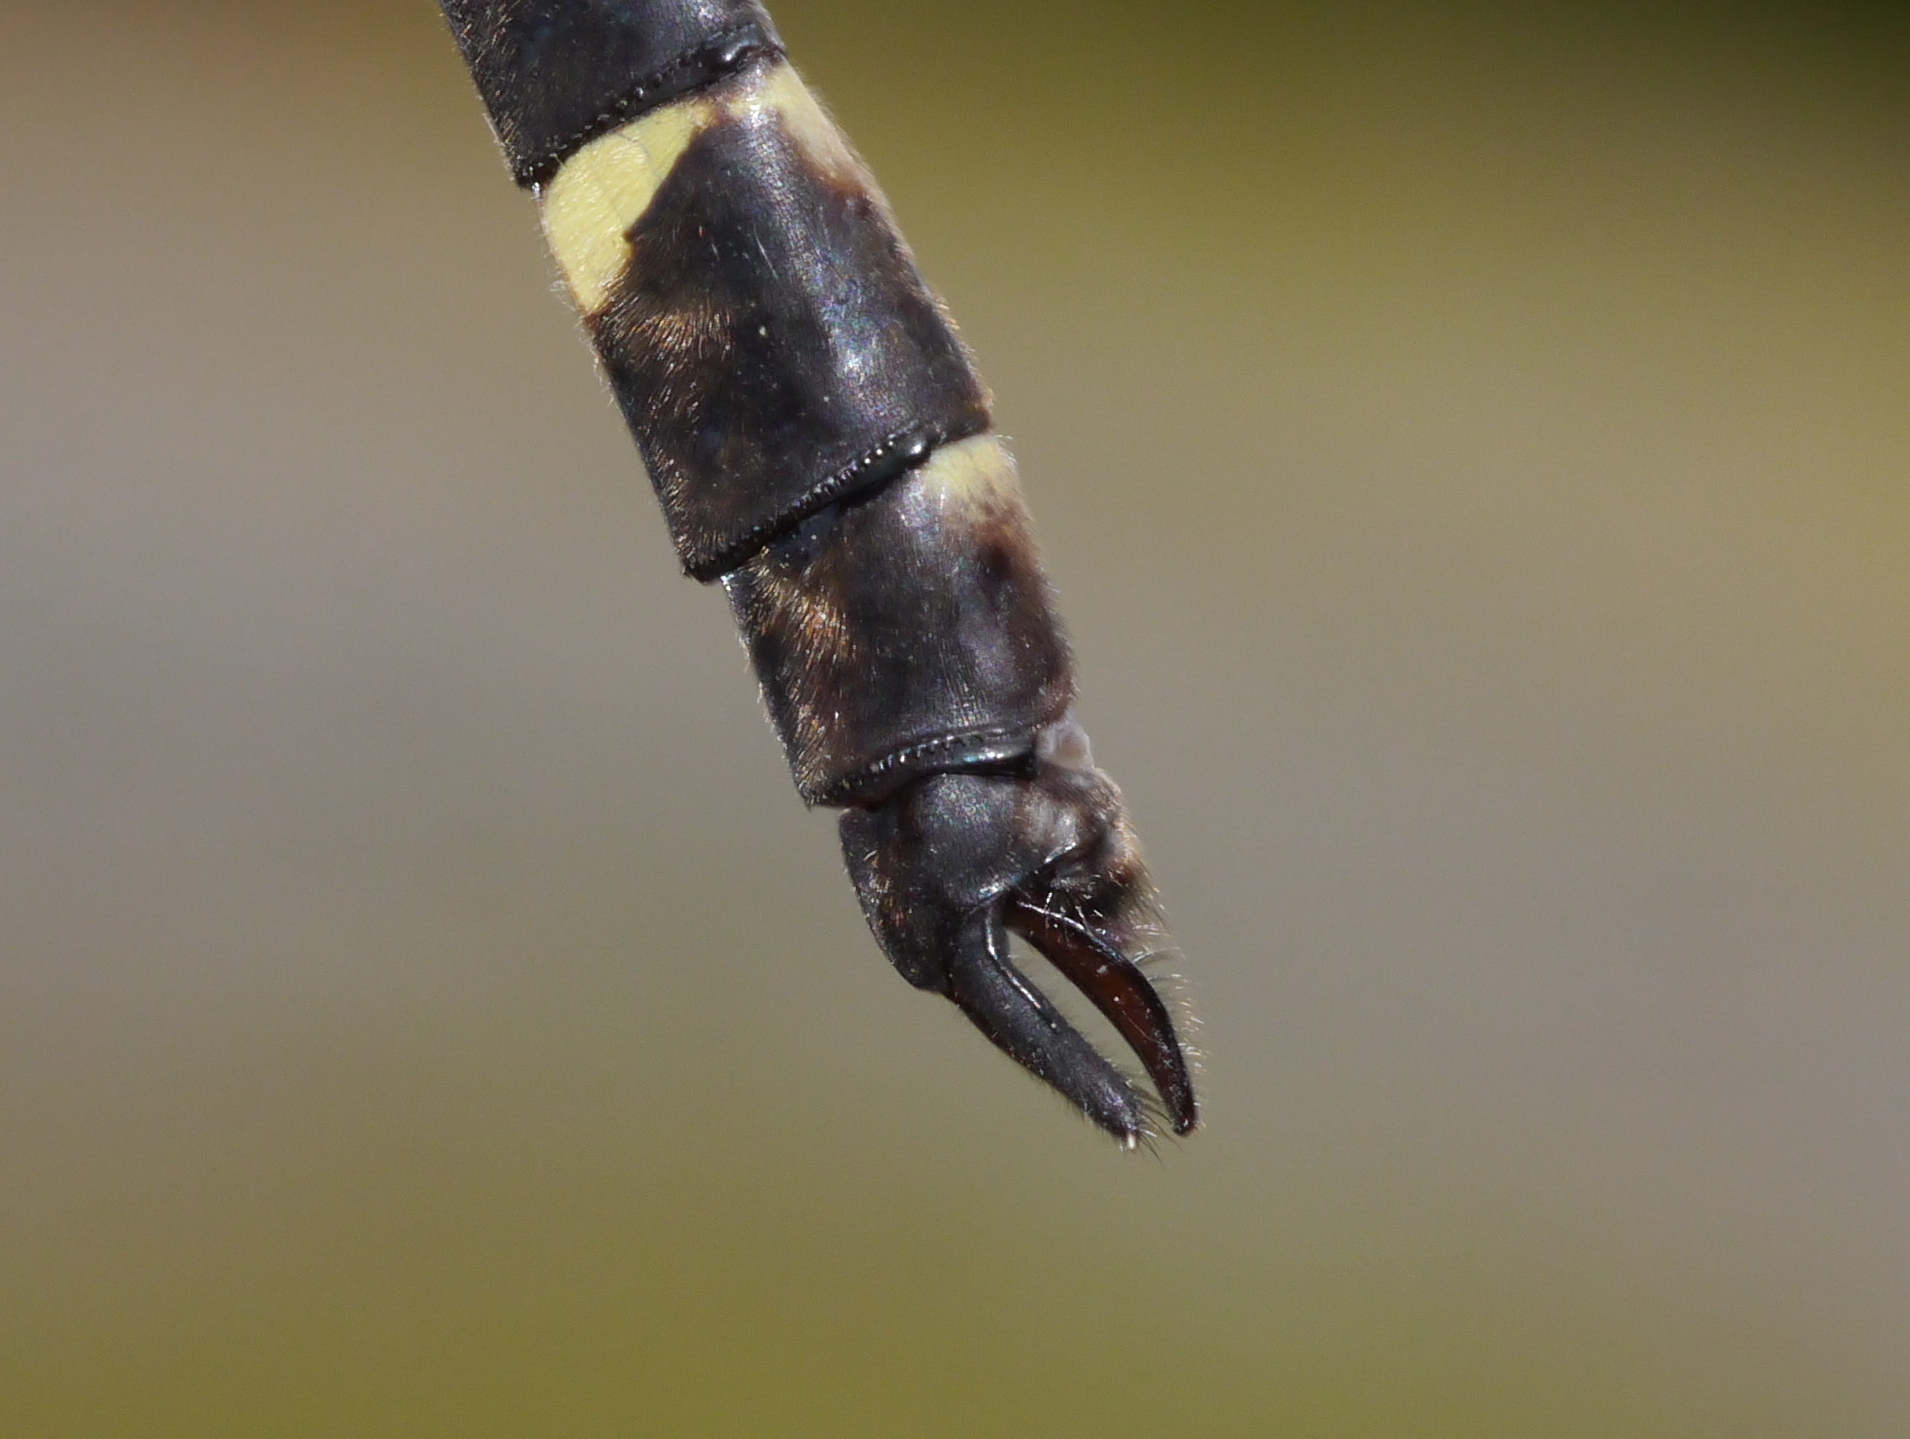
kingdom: Animalia
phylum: Arthropoda
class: Insecta
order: Odonata
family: Macromiidae
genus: Macromia
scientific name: Macromia illinoiensis
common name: Swift river cruiser
